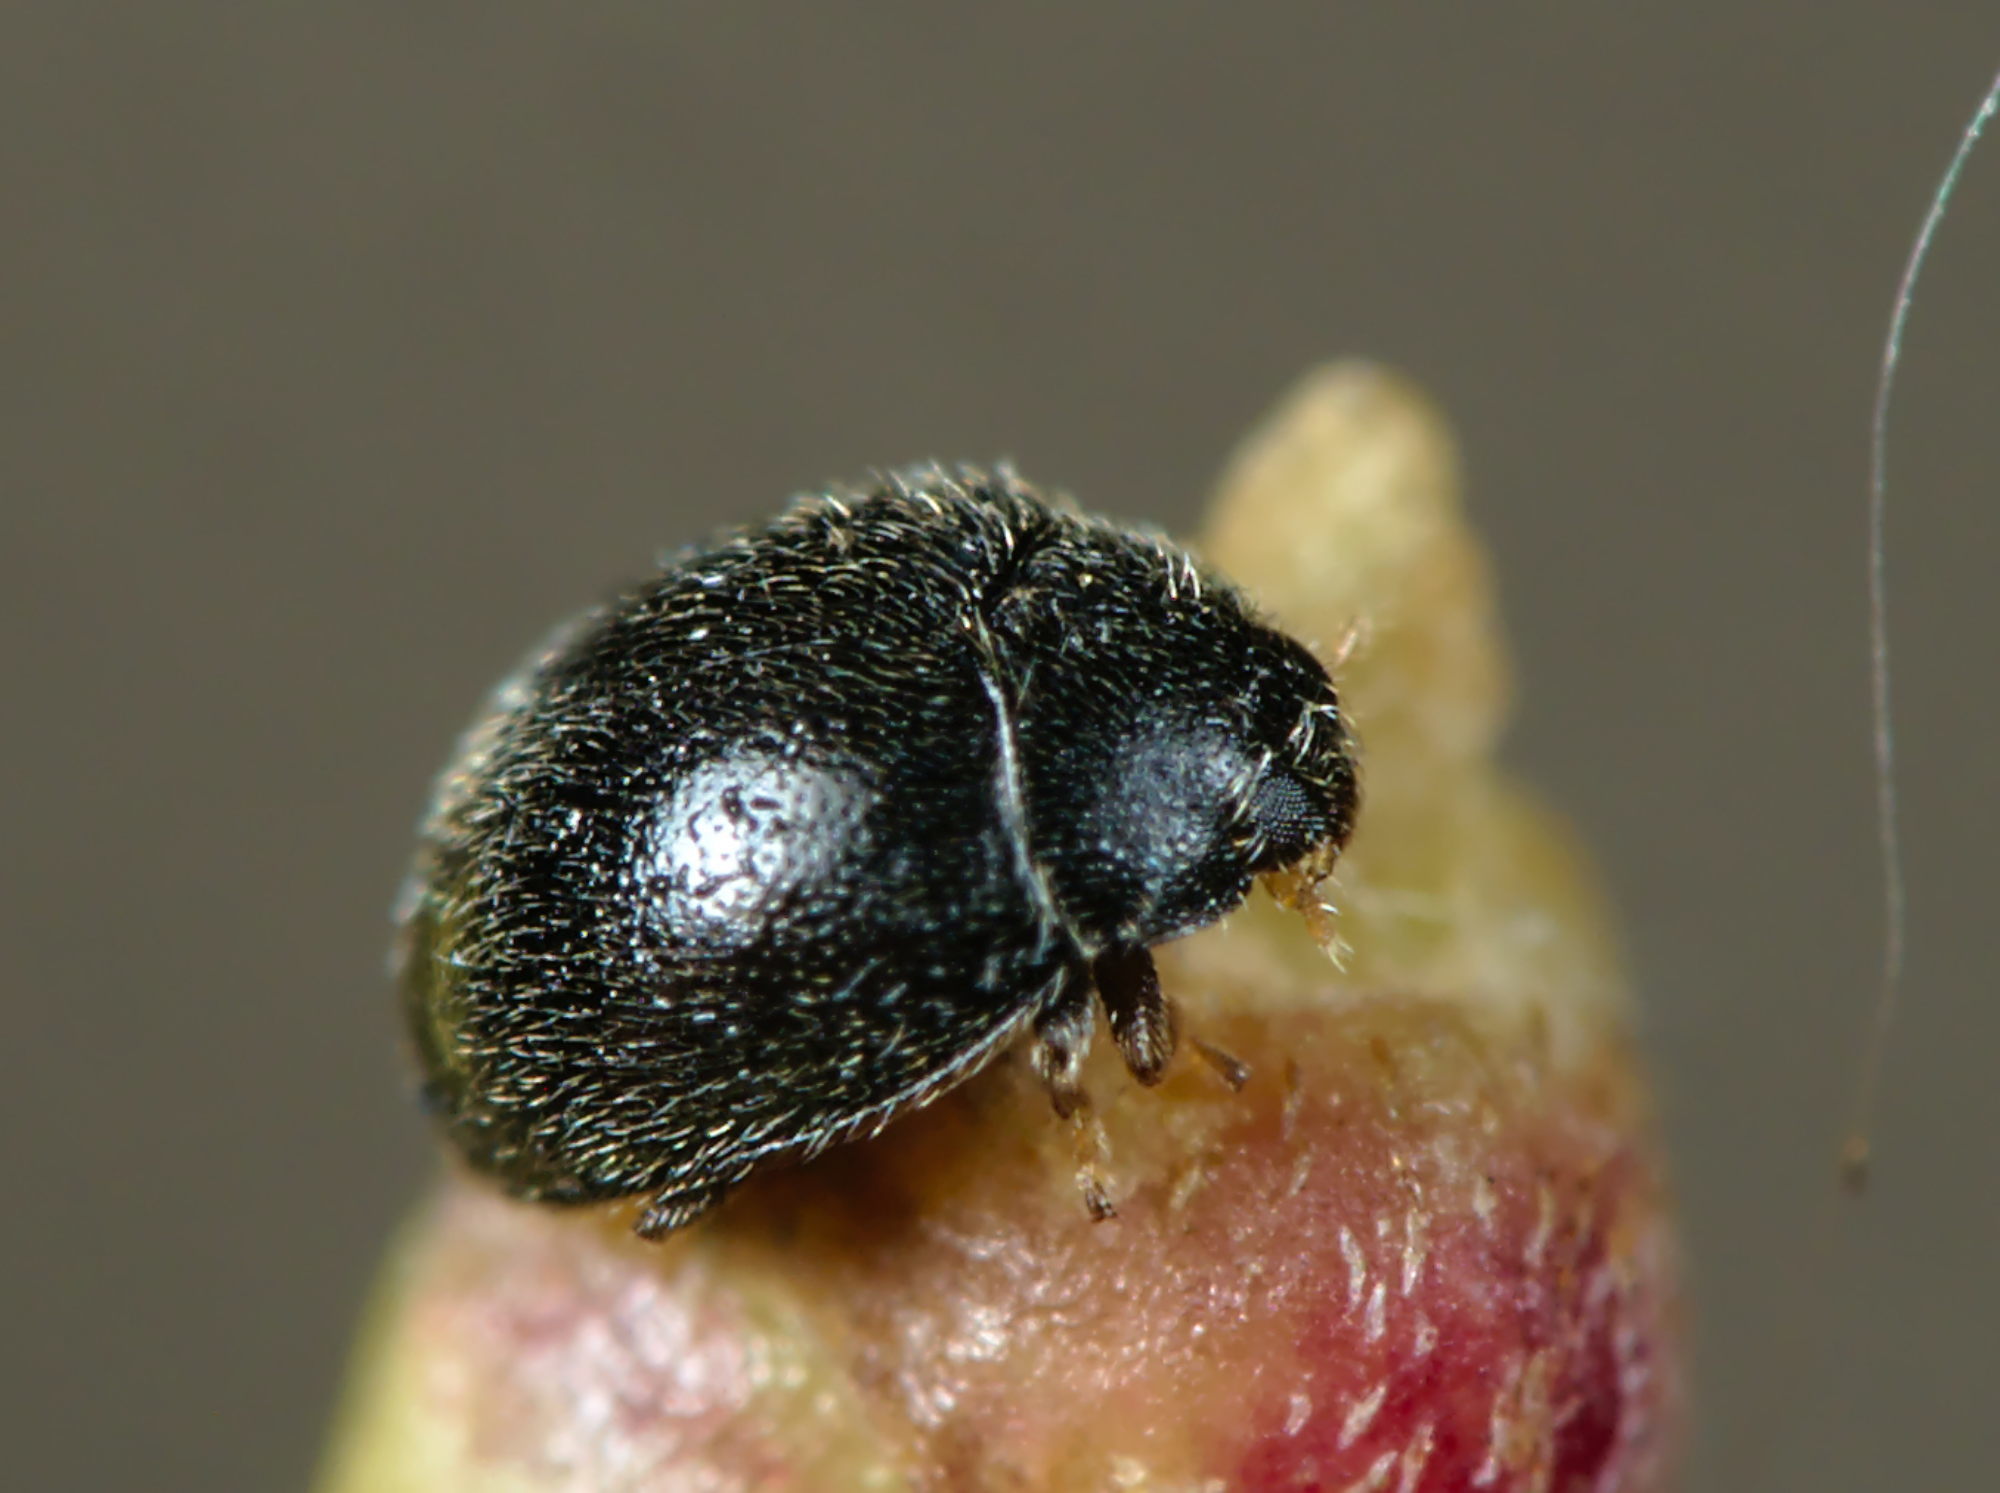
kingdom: Animalia
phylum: Arthropoda
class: Insecta
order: Coleoptera
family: Coccinellidae
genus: Stethorus
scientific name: Stethorus pusillus
